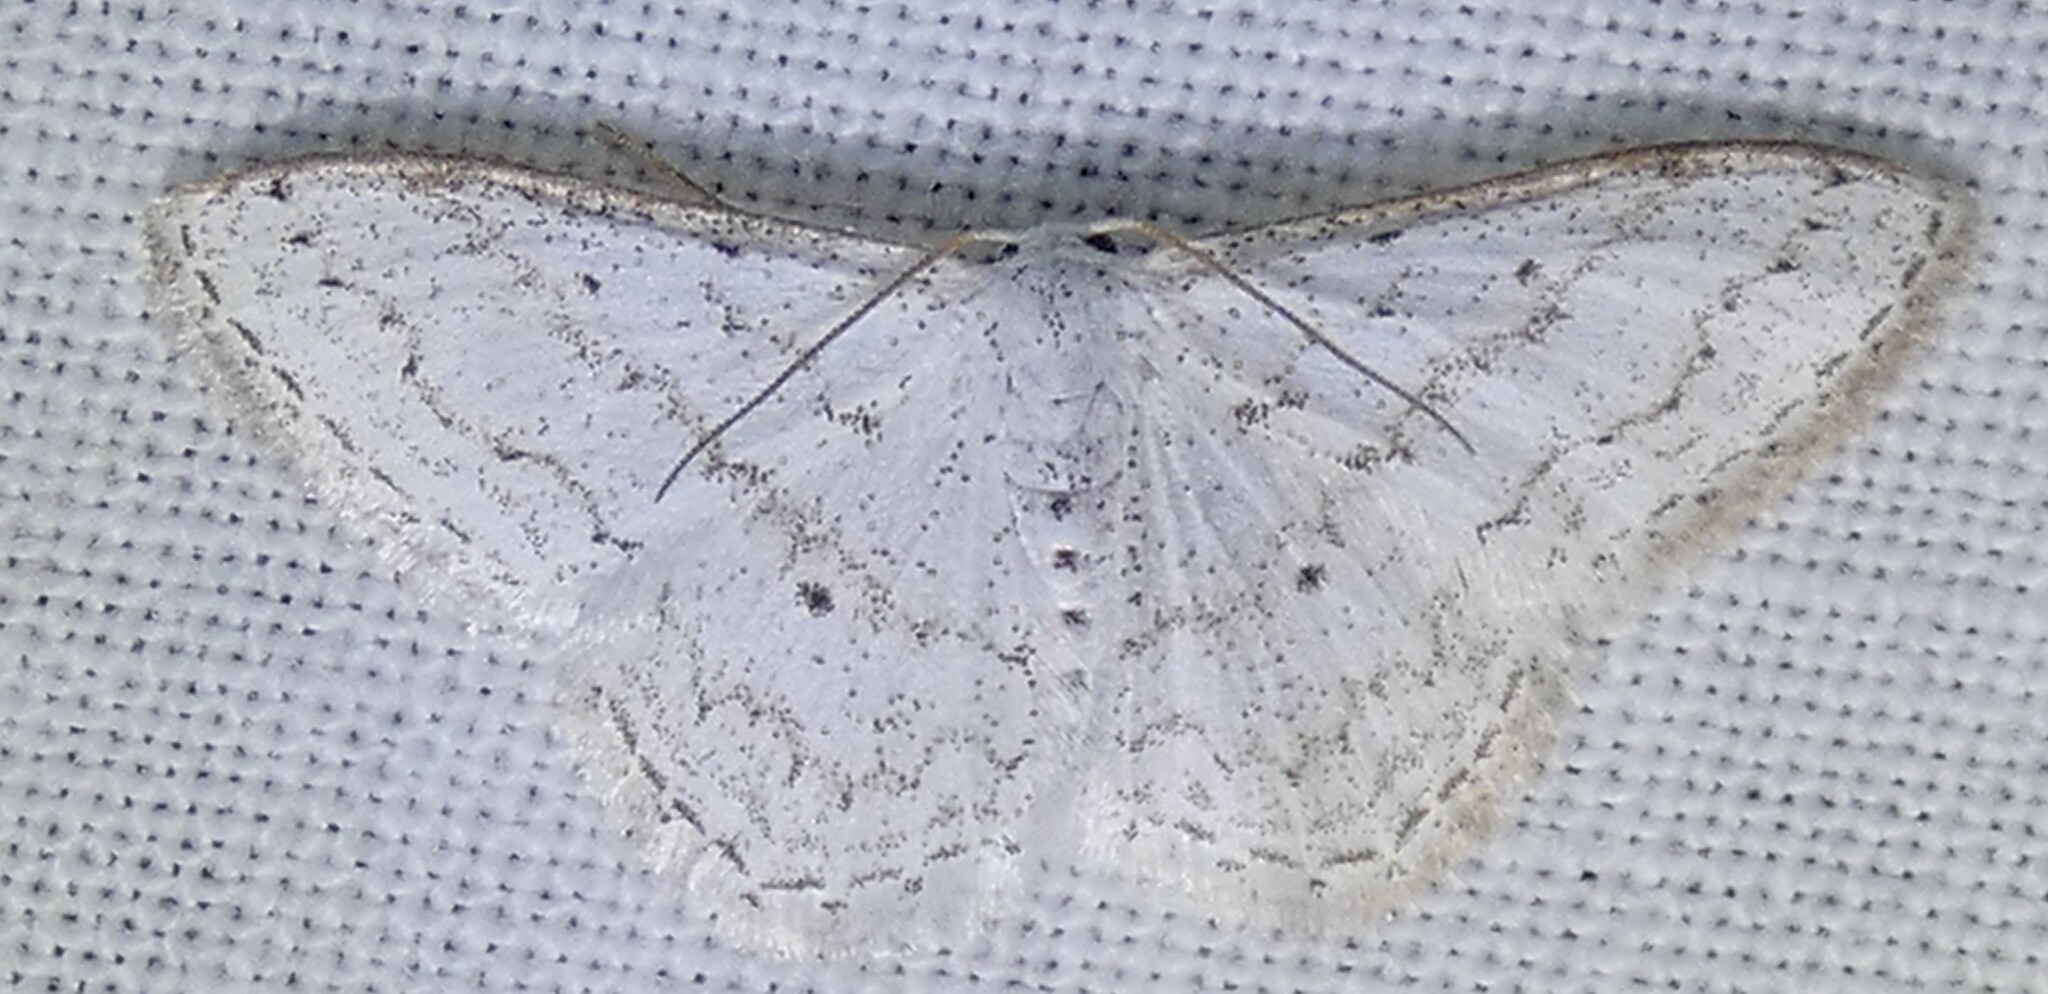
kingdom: Animalia
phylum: Arthropoda
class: Insecta
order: Lepidoptera
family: Geometridae
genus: Idaea
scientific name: Idaea tacturata
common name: Dot-lined wave
